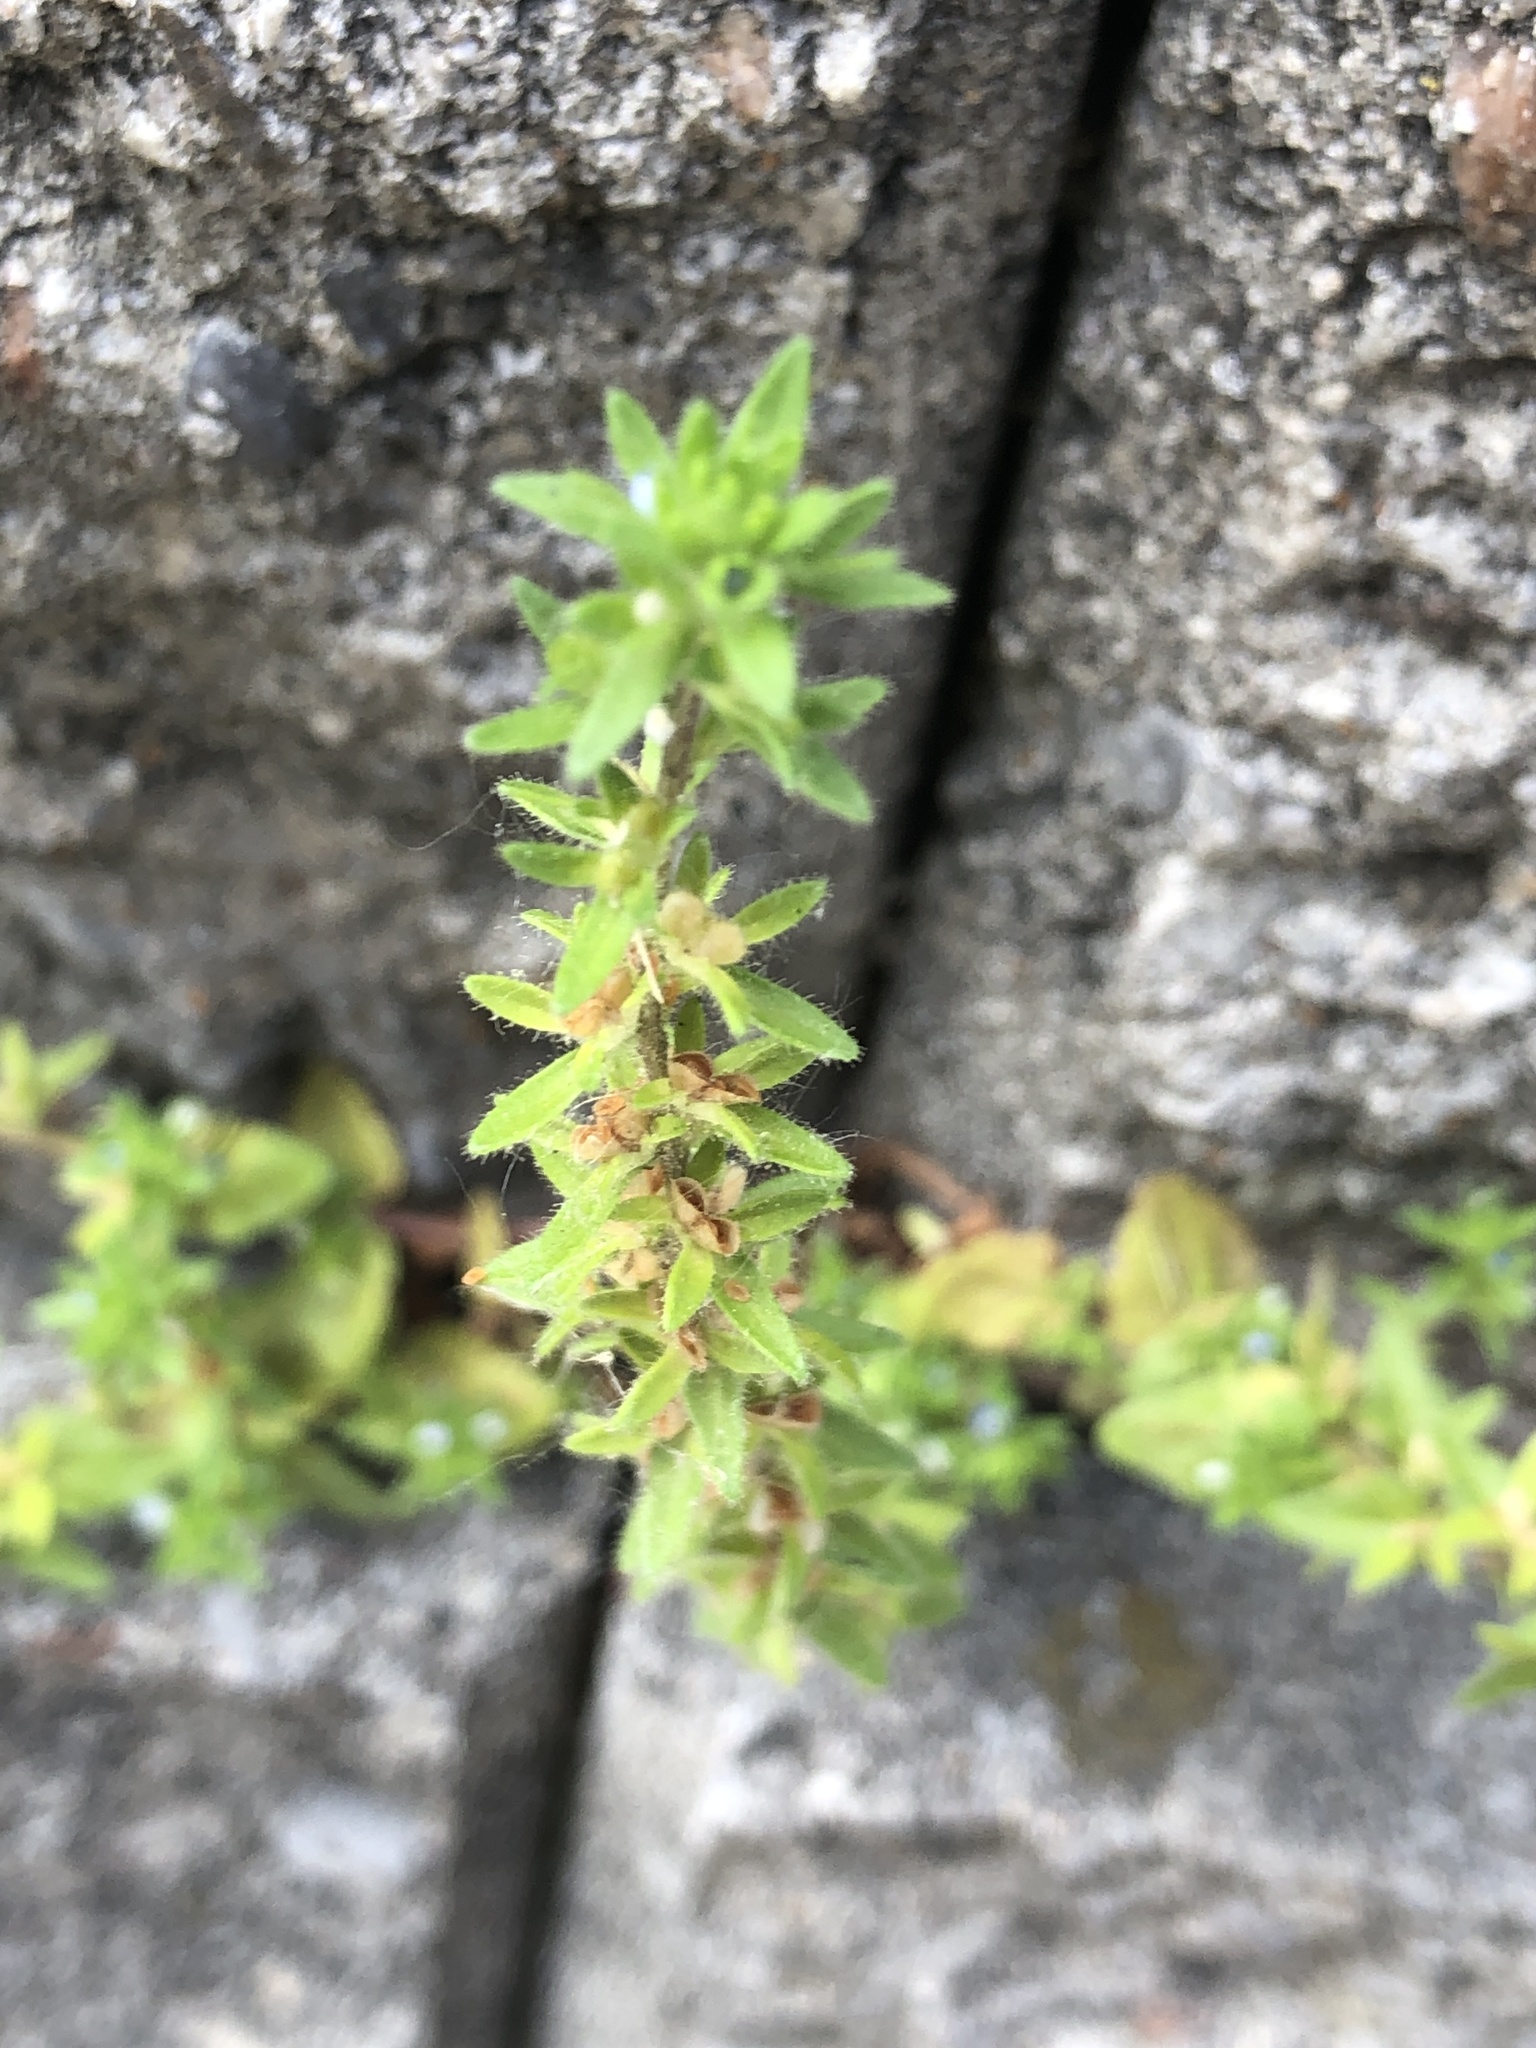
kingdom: Plantae
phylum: Tracheophyta
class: Magnoliopsida
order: Lamiales
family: Plantaginaceae
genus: Veronica
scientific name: Veronica arvensis
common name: Corn speedwell
